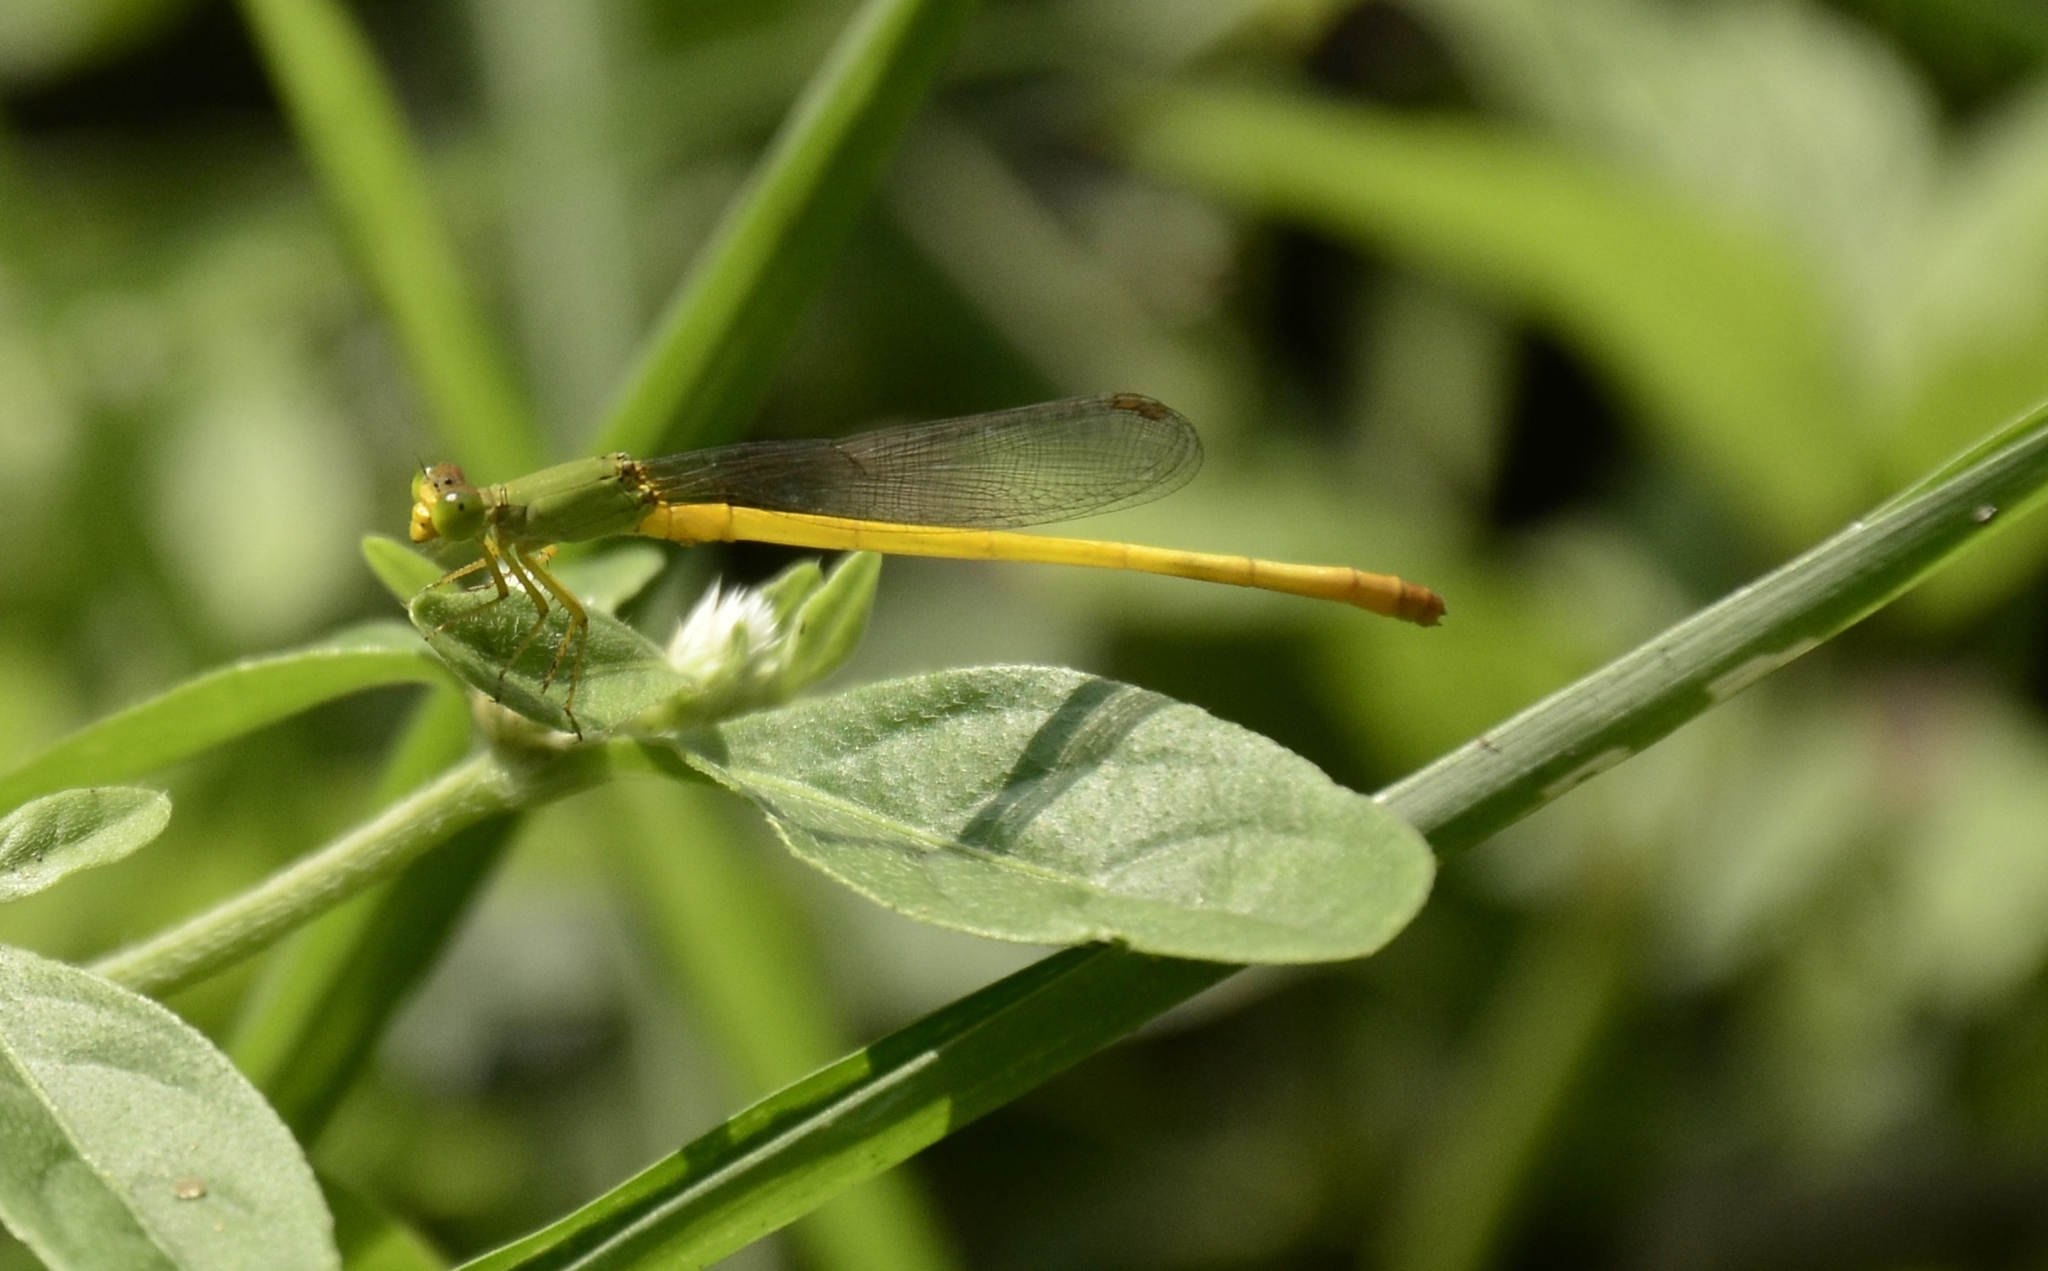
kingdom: Animalia
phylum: Arthropoda
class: Insecta
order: Odonata
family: Coenagrionidae
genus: Ceriagrion
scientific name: Ceriagrion coromandelianum
